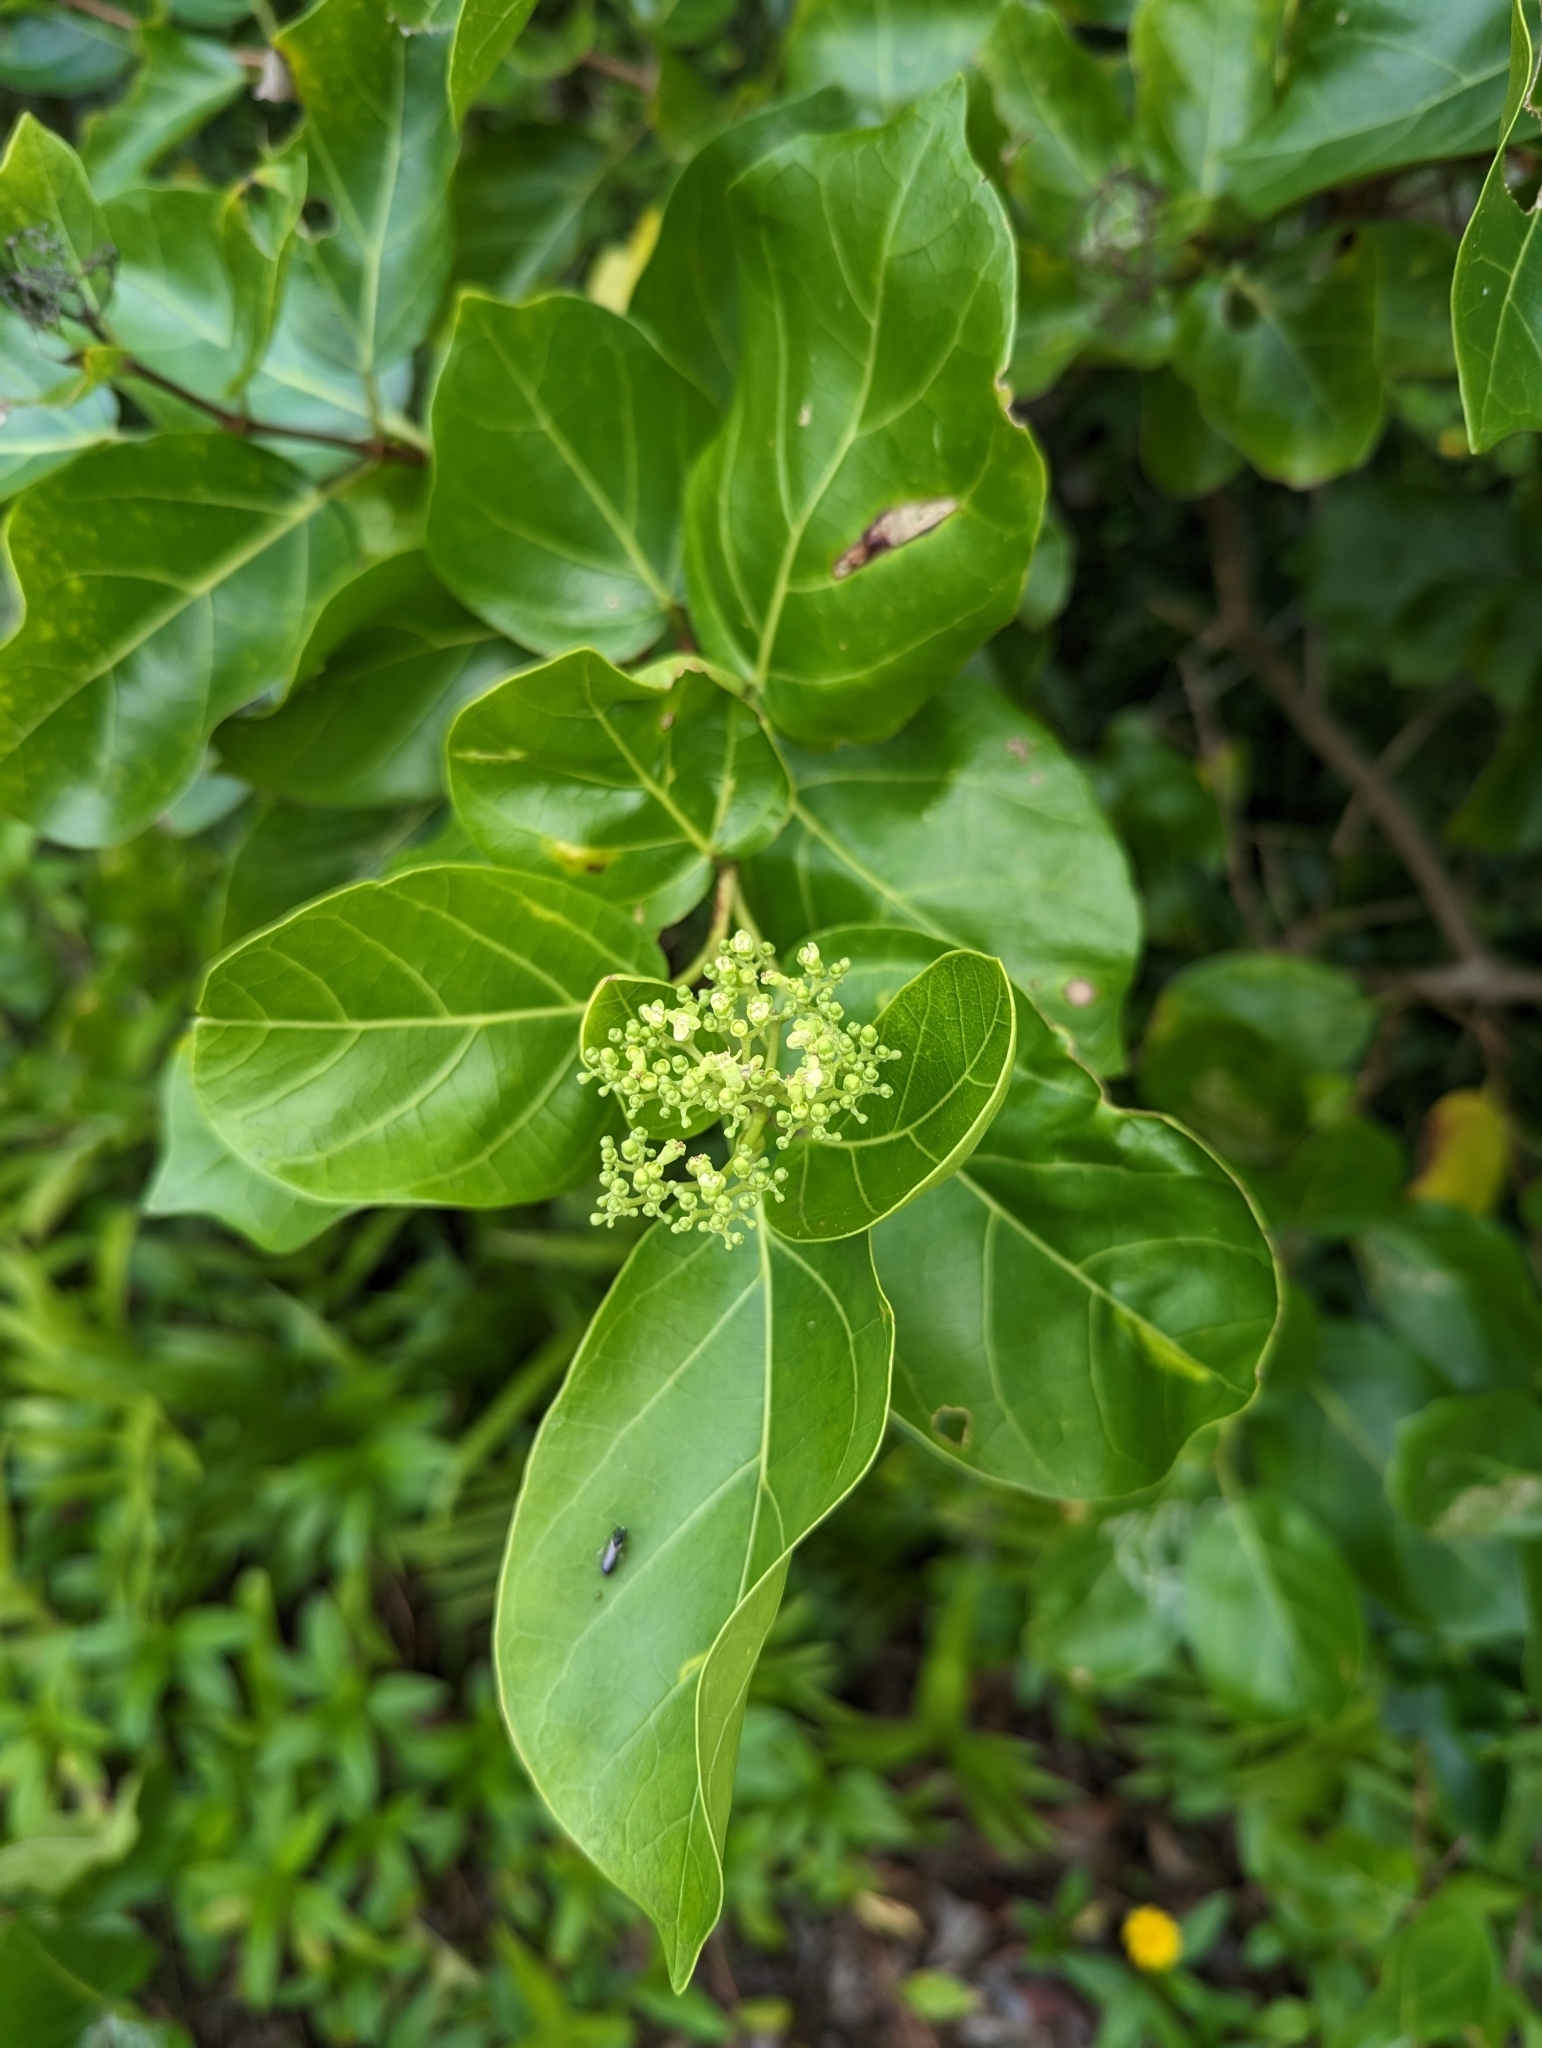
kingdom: Plantae
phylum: Tracheophyta
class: Magnoliopsida
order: Lamiales
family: Lamiaceae
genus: Premna
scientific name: Premna serratifolia
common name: Bastard guelder
